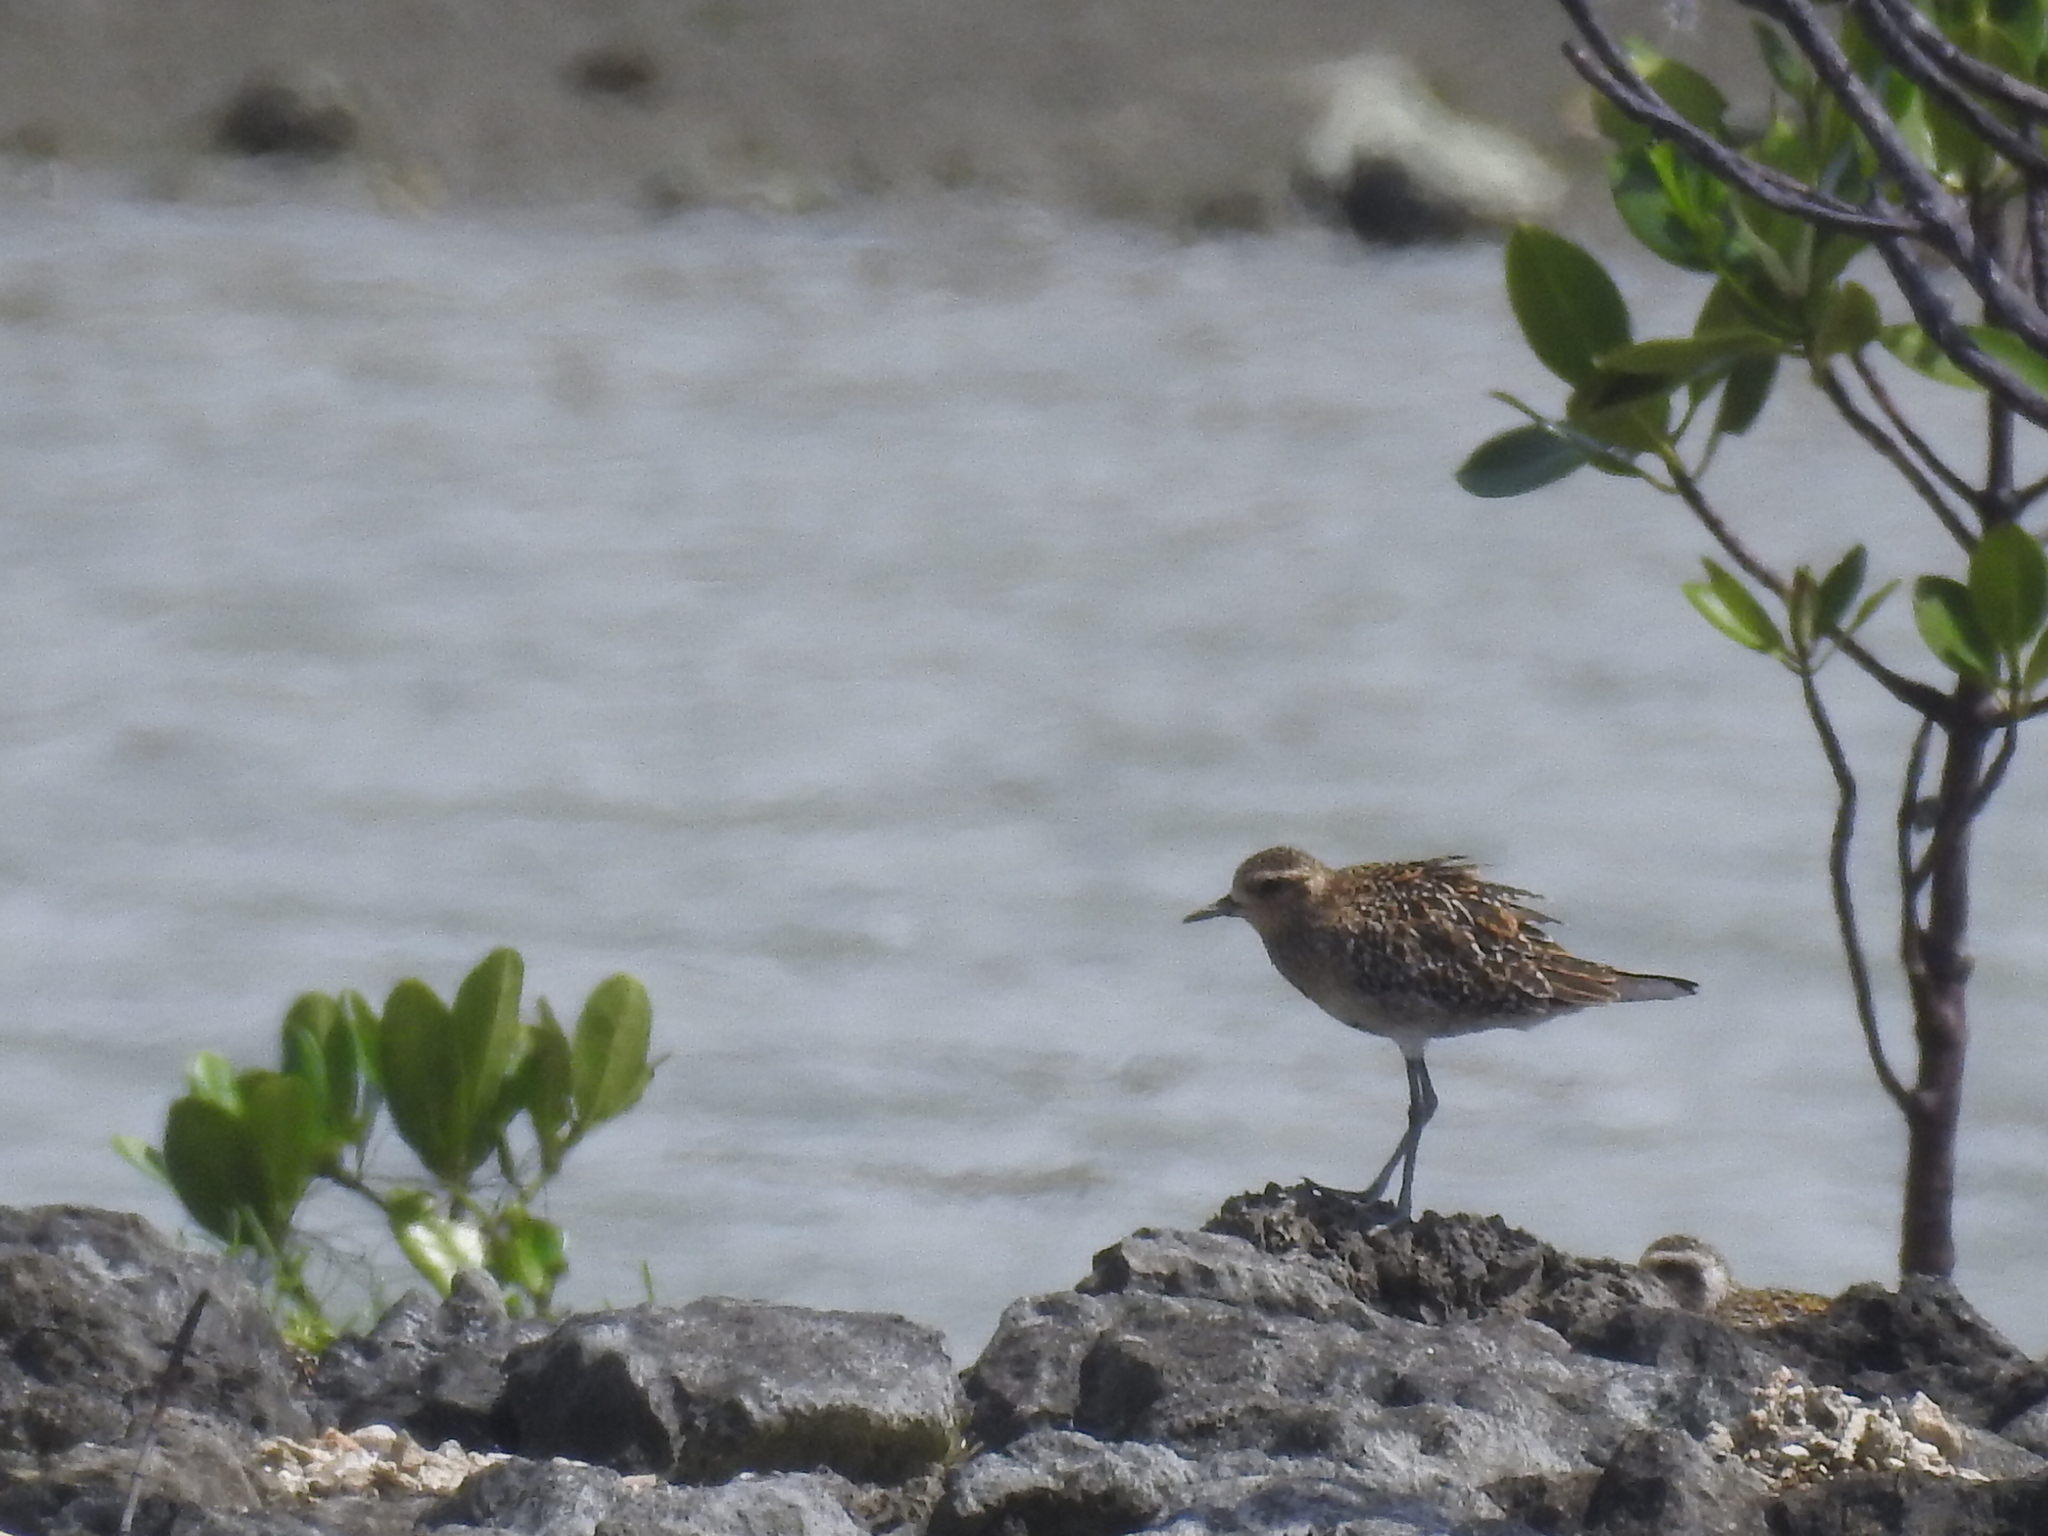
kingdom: Animalia
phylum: Chordata
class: Aves
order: Charadriiformes
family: Charadriidae
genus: Pluvialis
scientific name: Pluvialis fulva
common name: Pacific golden plover
